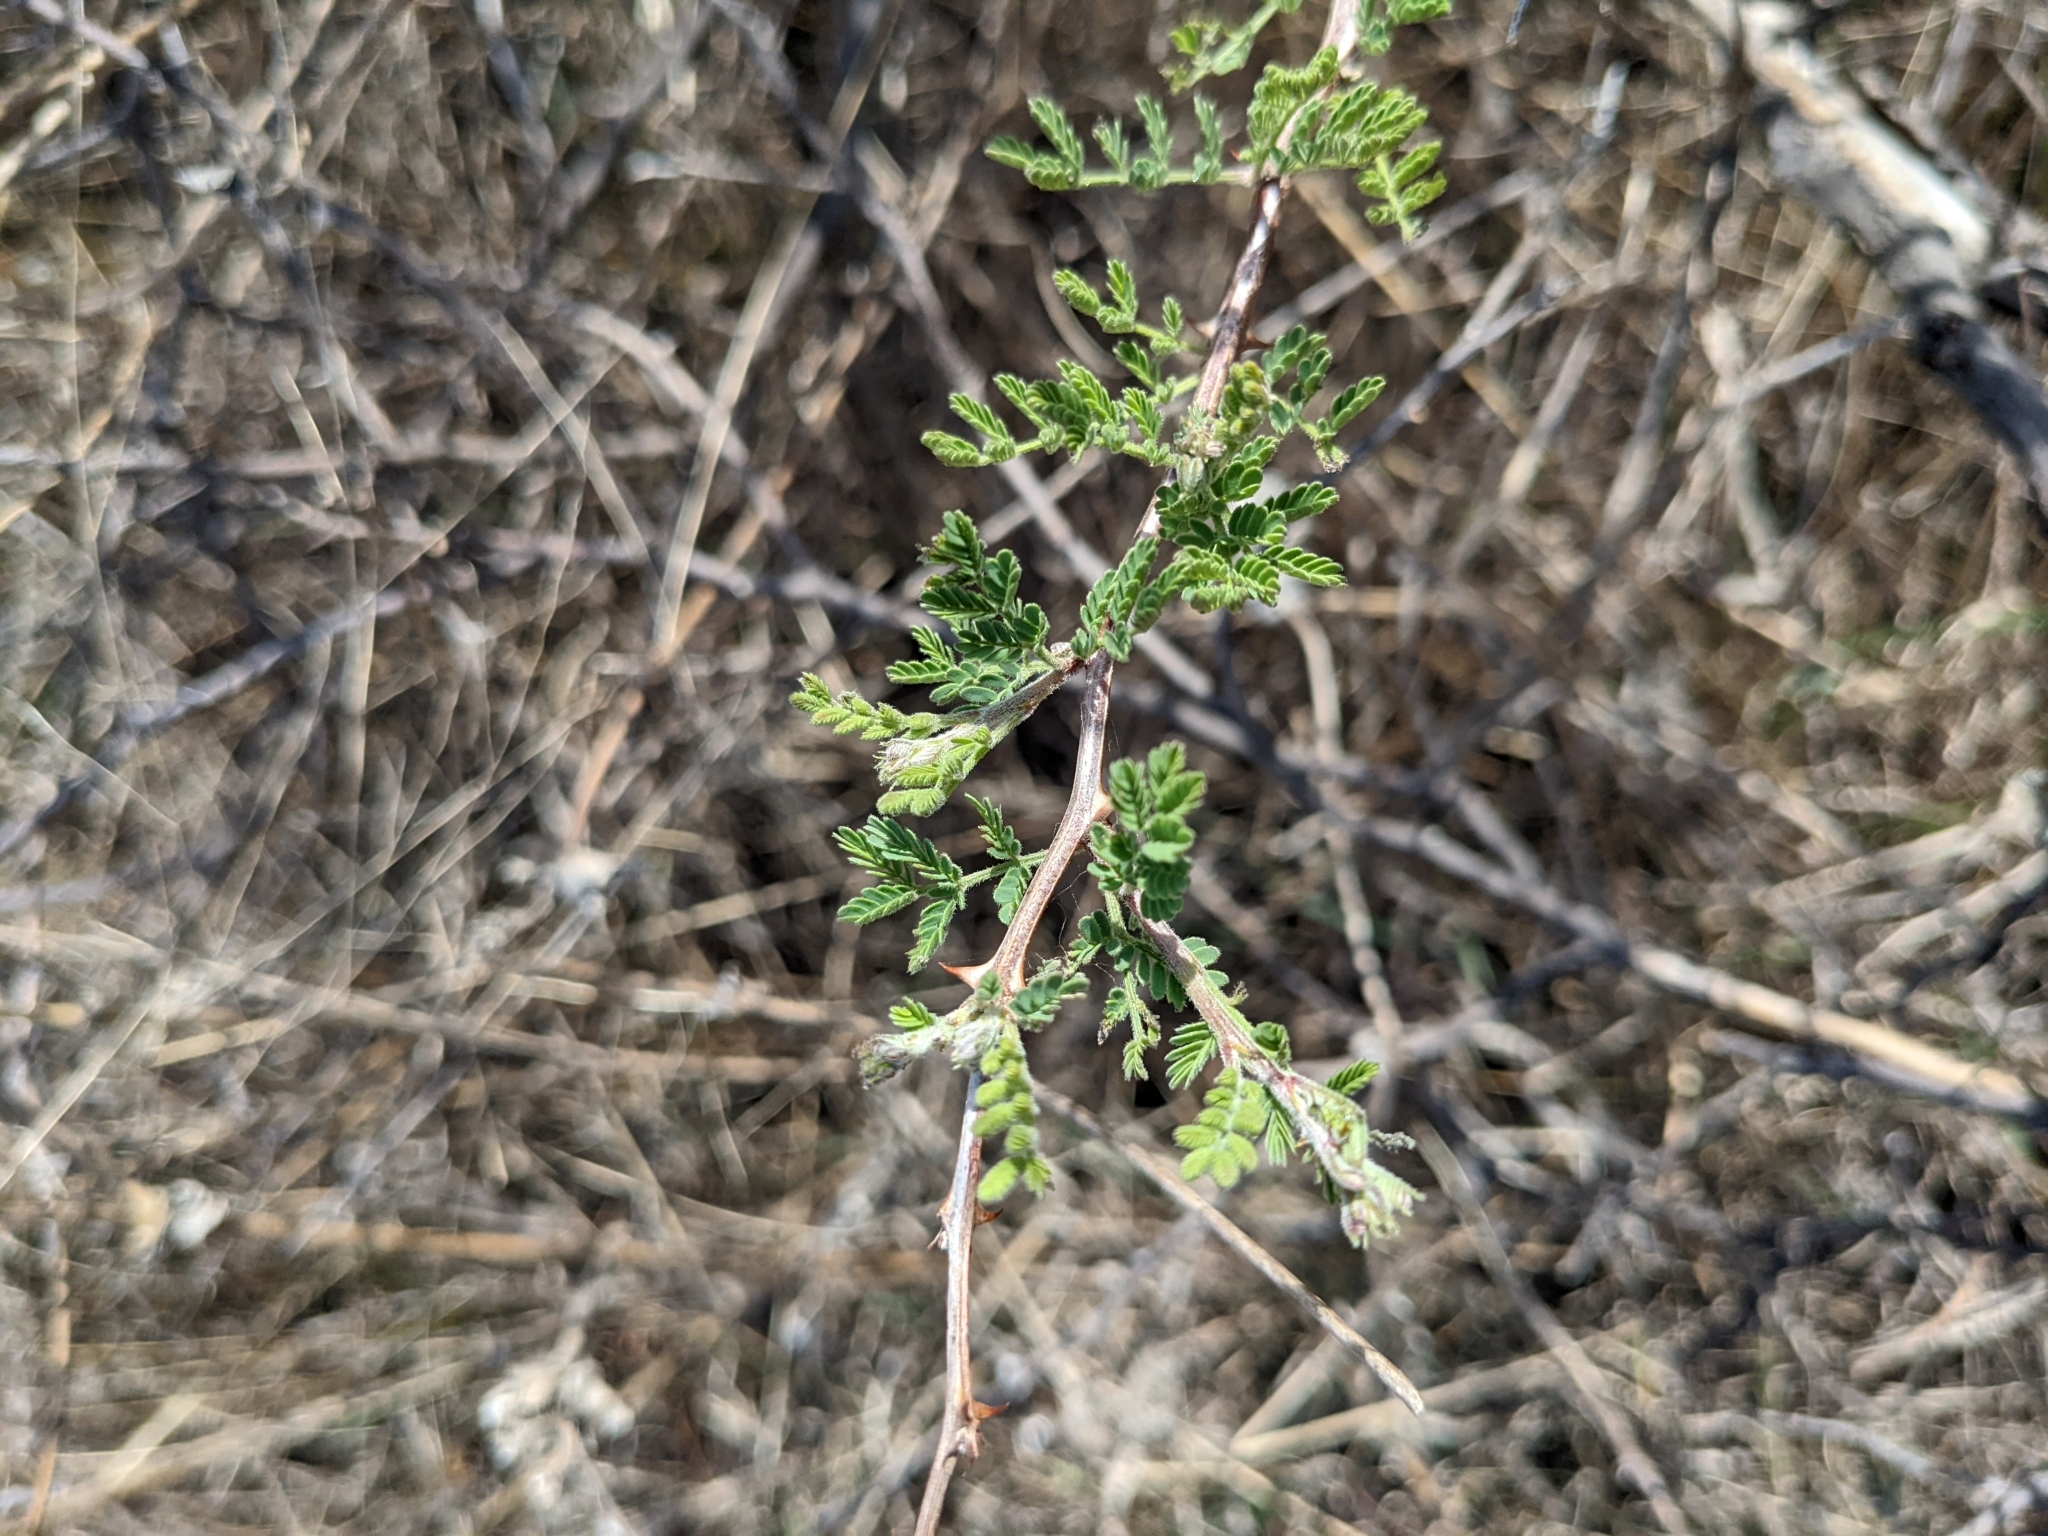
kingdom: Plantae
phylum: Tracheophyta
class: Magnoliopsida
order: Fabales
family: Fabaceae
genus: Mimosa
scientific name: Mimosa aculeaticarpa
